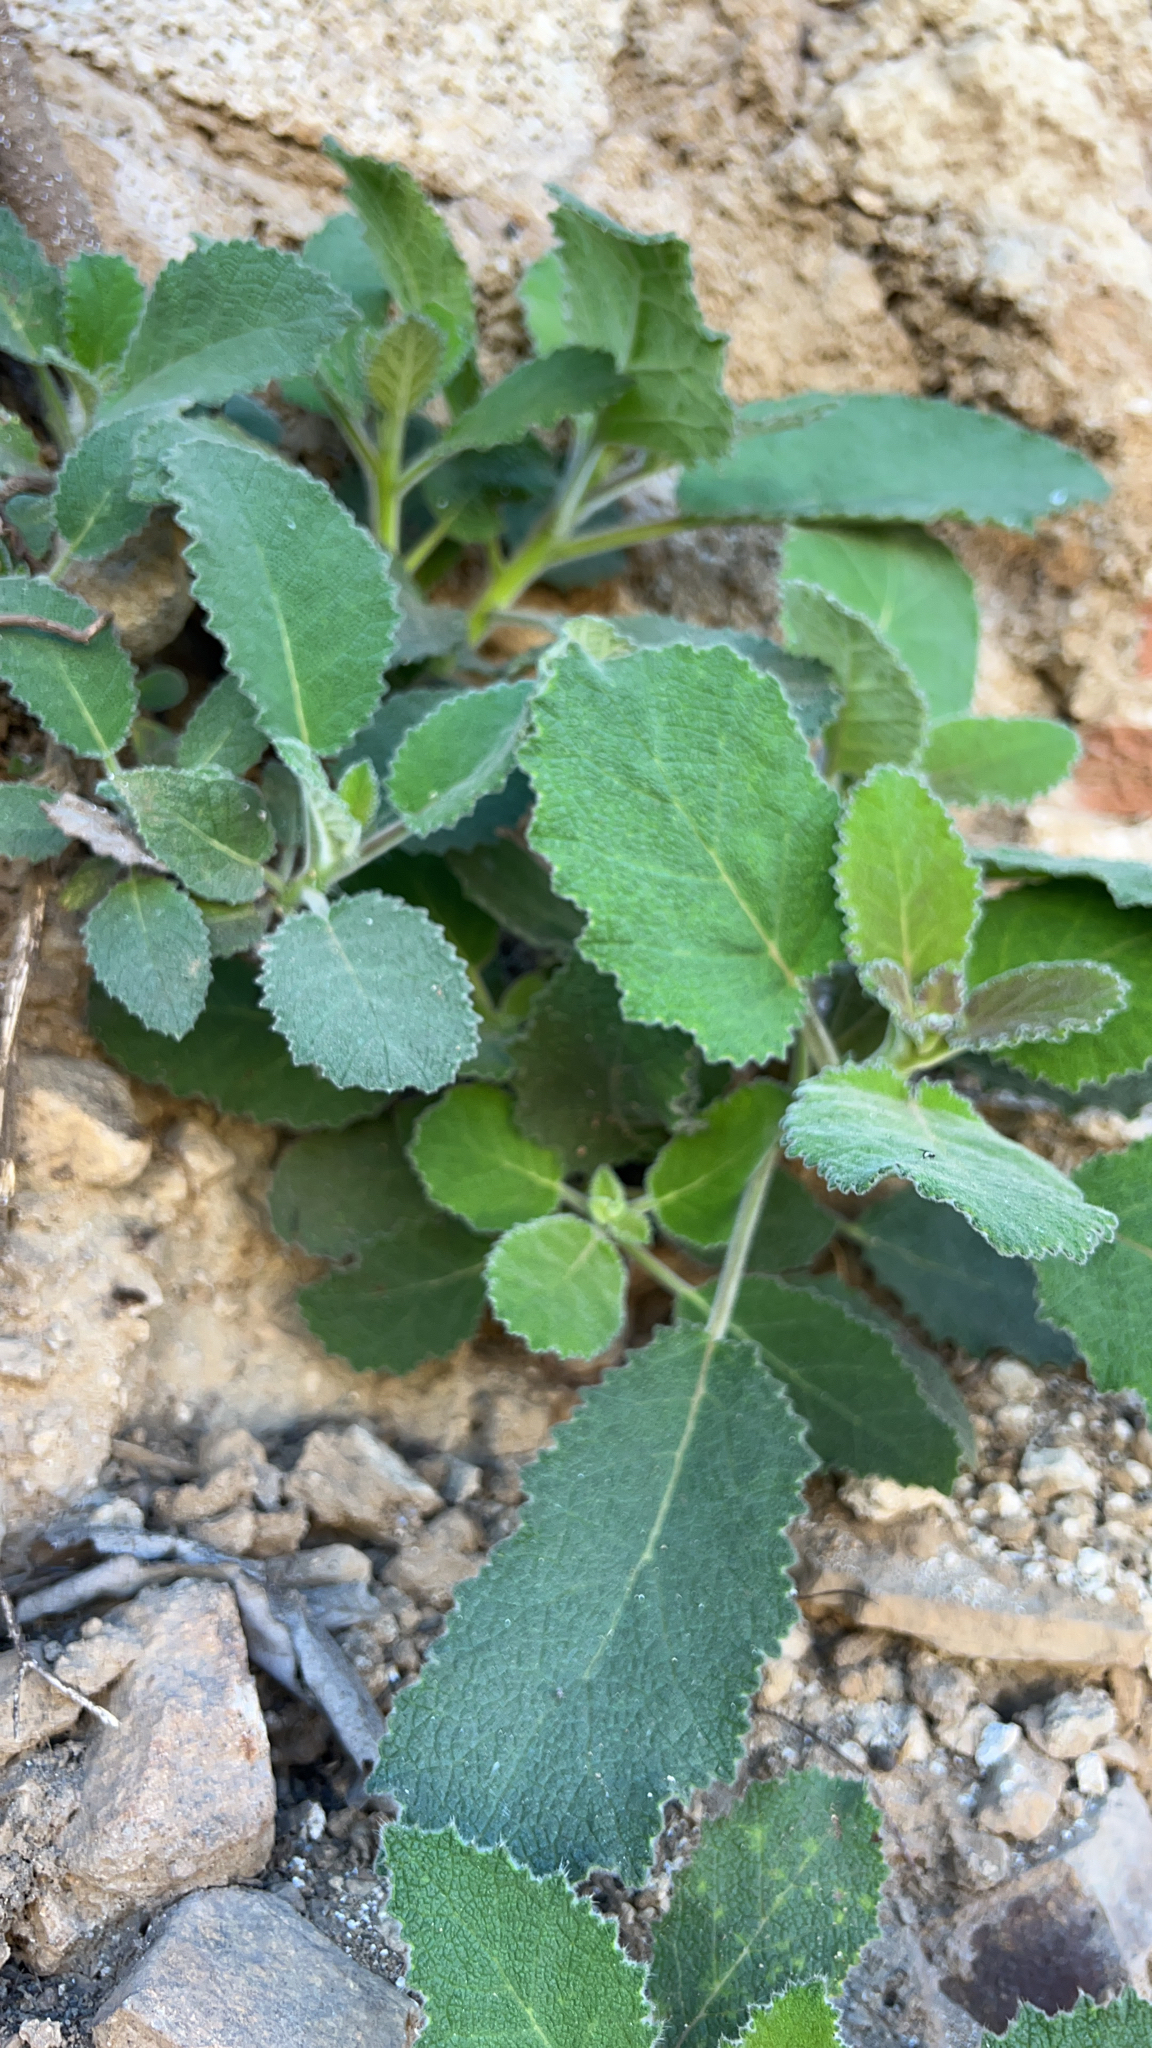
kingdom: Plantae
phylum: Tracheophyta
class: Magnoliopsida
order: Boraginales
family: Namaceae
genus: Wigandia
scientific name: Wigandia urens
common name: Caracus wigandia
